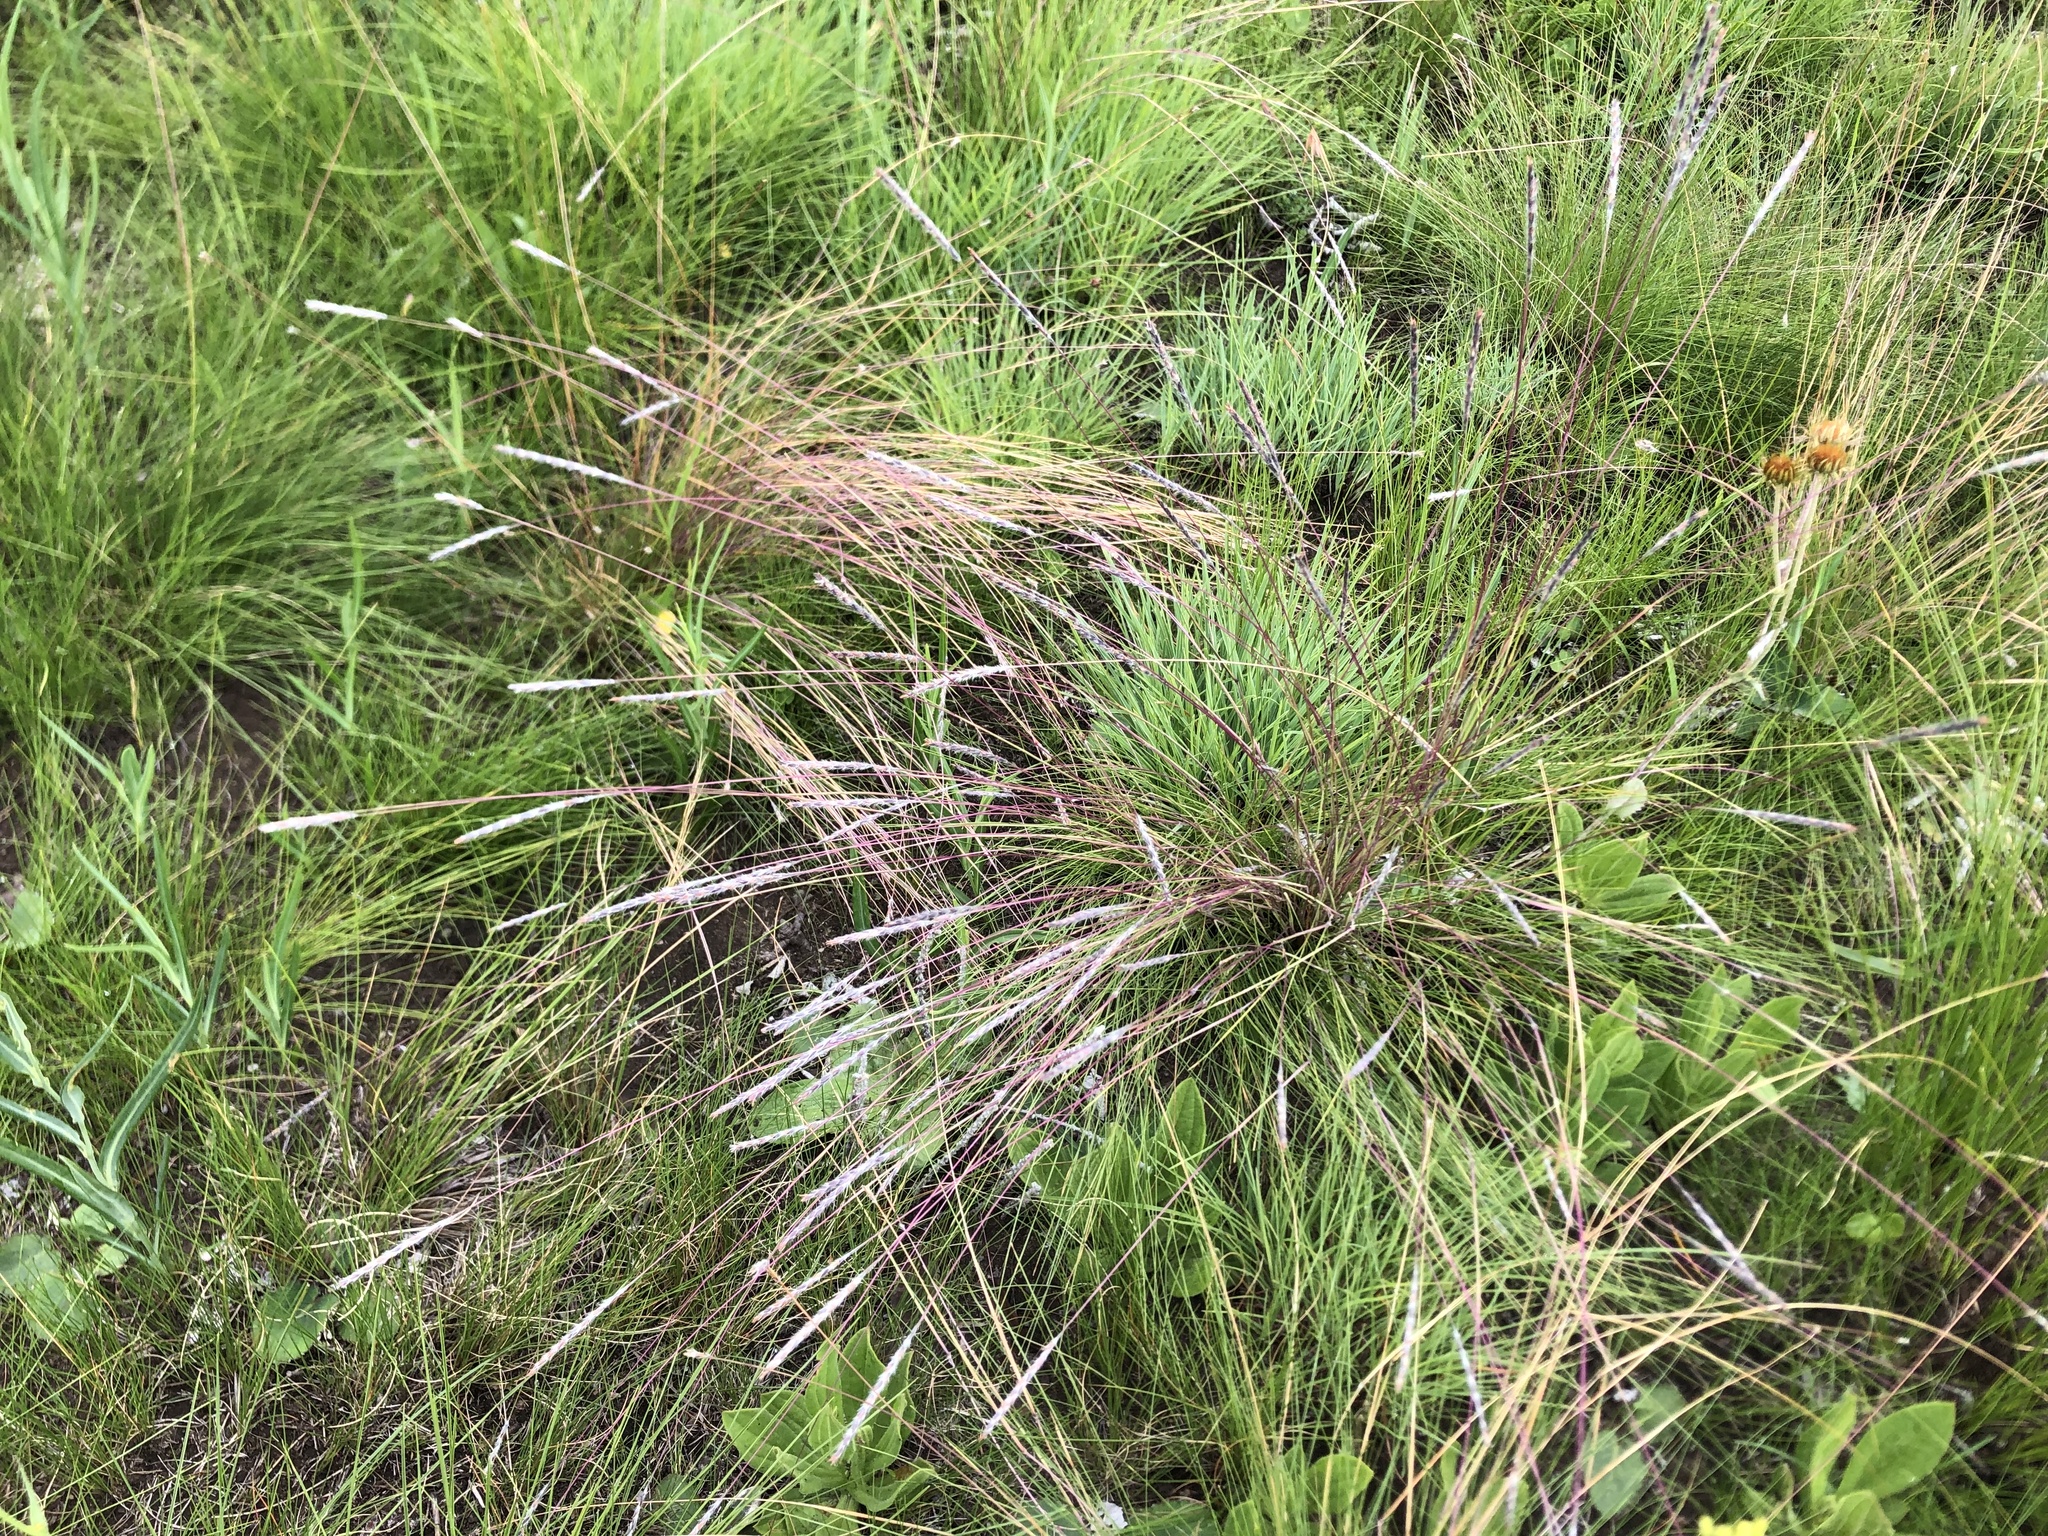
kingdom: Plantae
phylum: Tracheophyta
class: Liliopsida
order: Poales
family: Poaceae
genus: Elionurus
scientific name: Elionurus muticus
